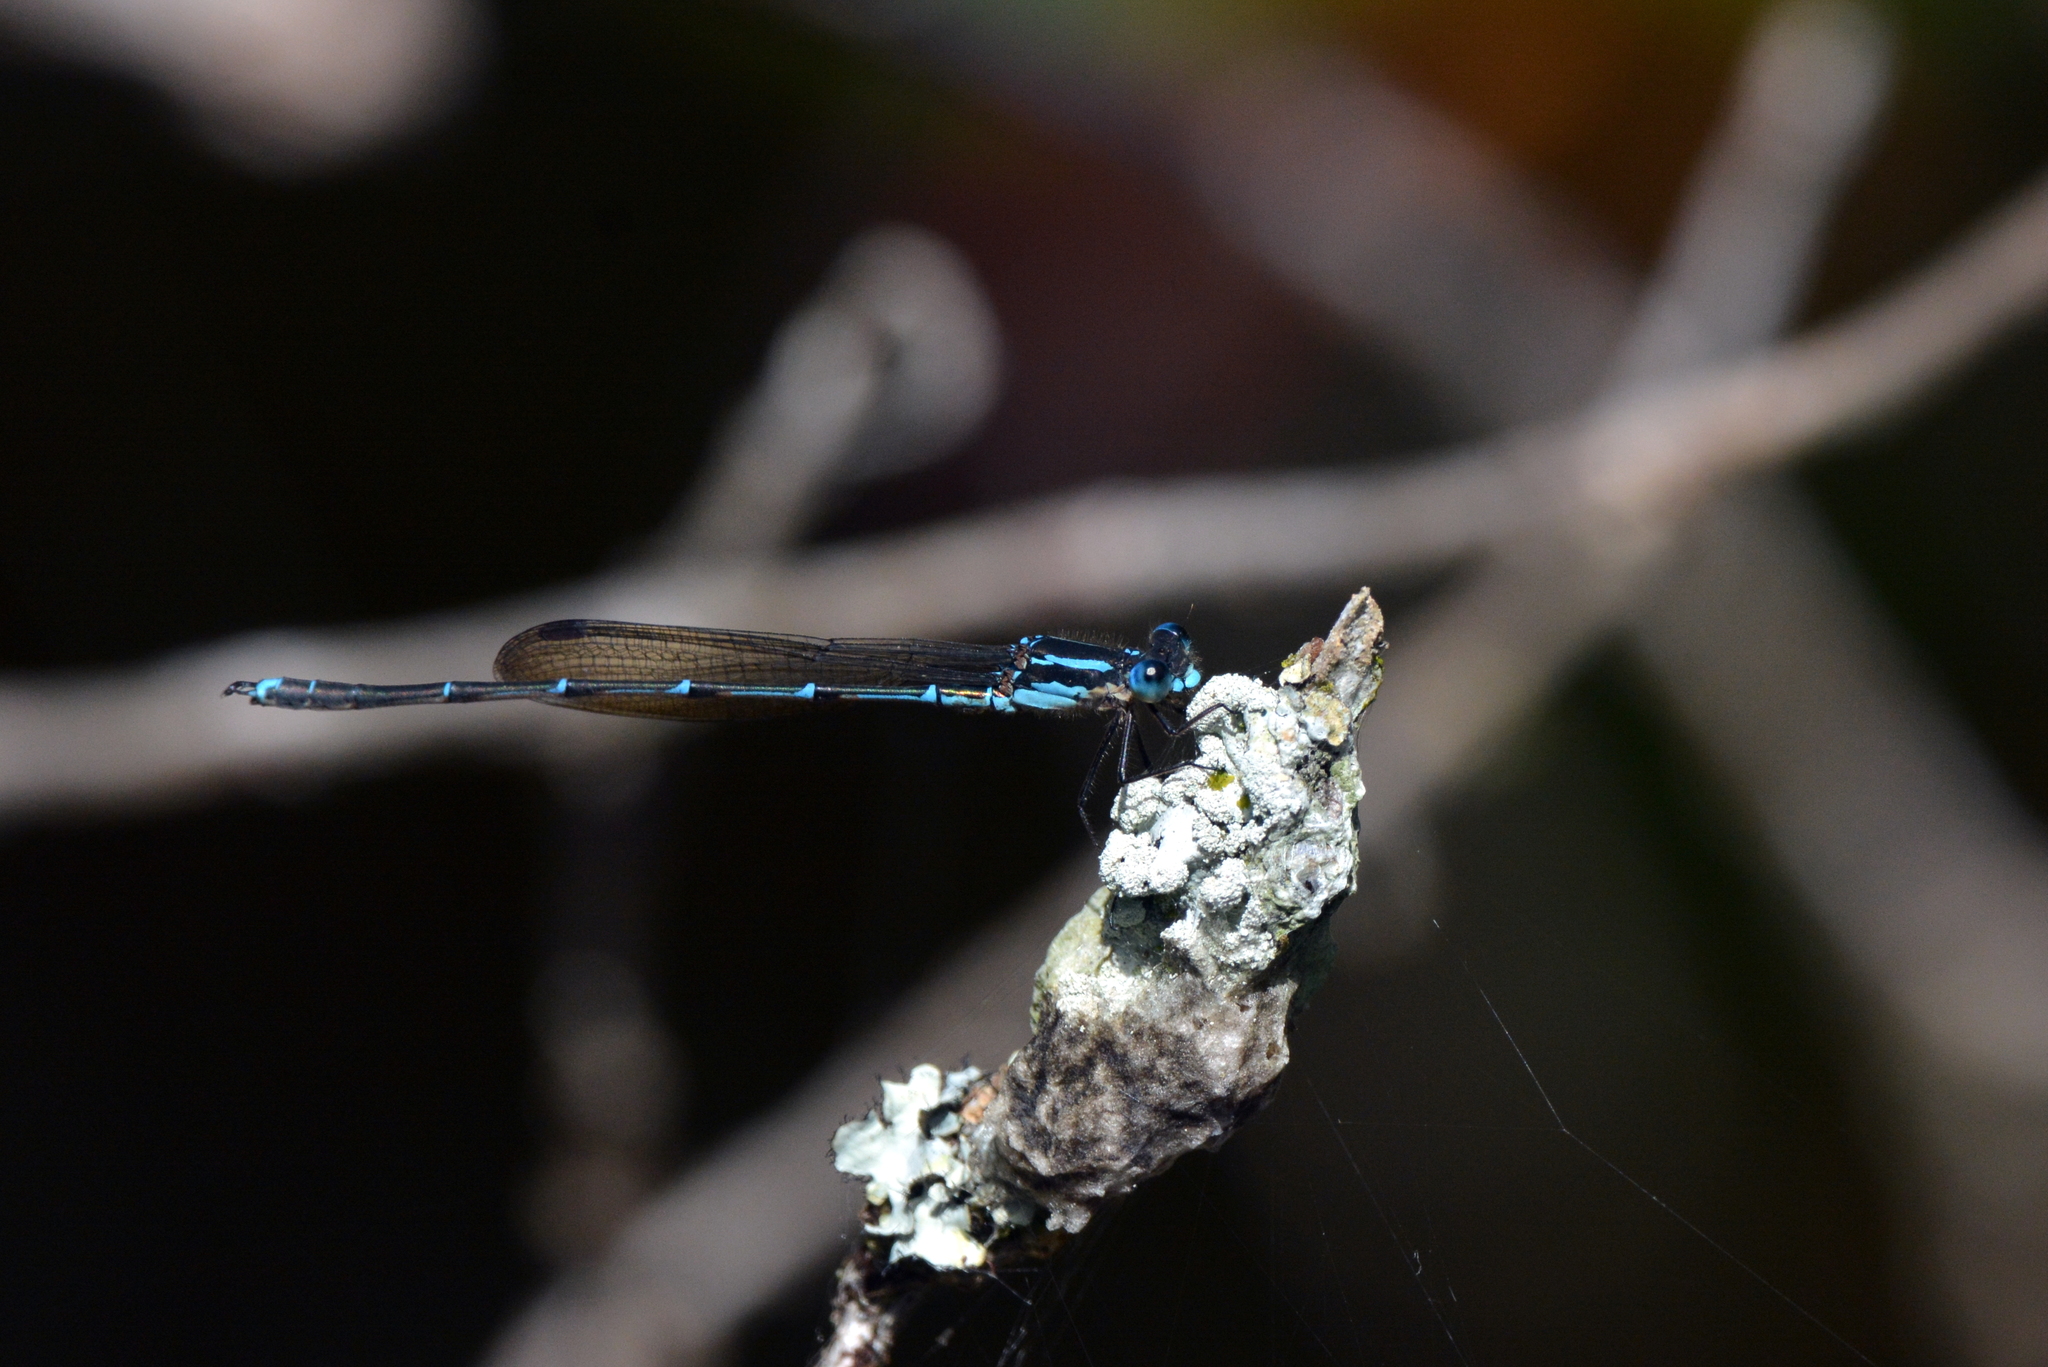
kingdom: Animalia
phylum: Arthropoda
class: Insecta
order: Odonata
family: Lestidae
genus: Austrolestes
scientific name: Austrolestes colensonis
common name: Blue damselfly
